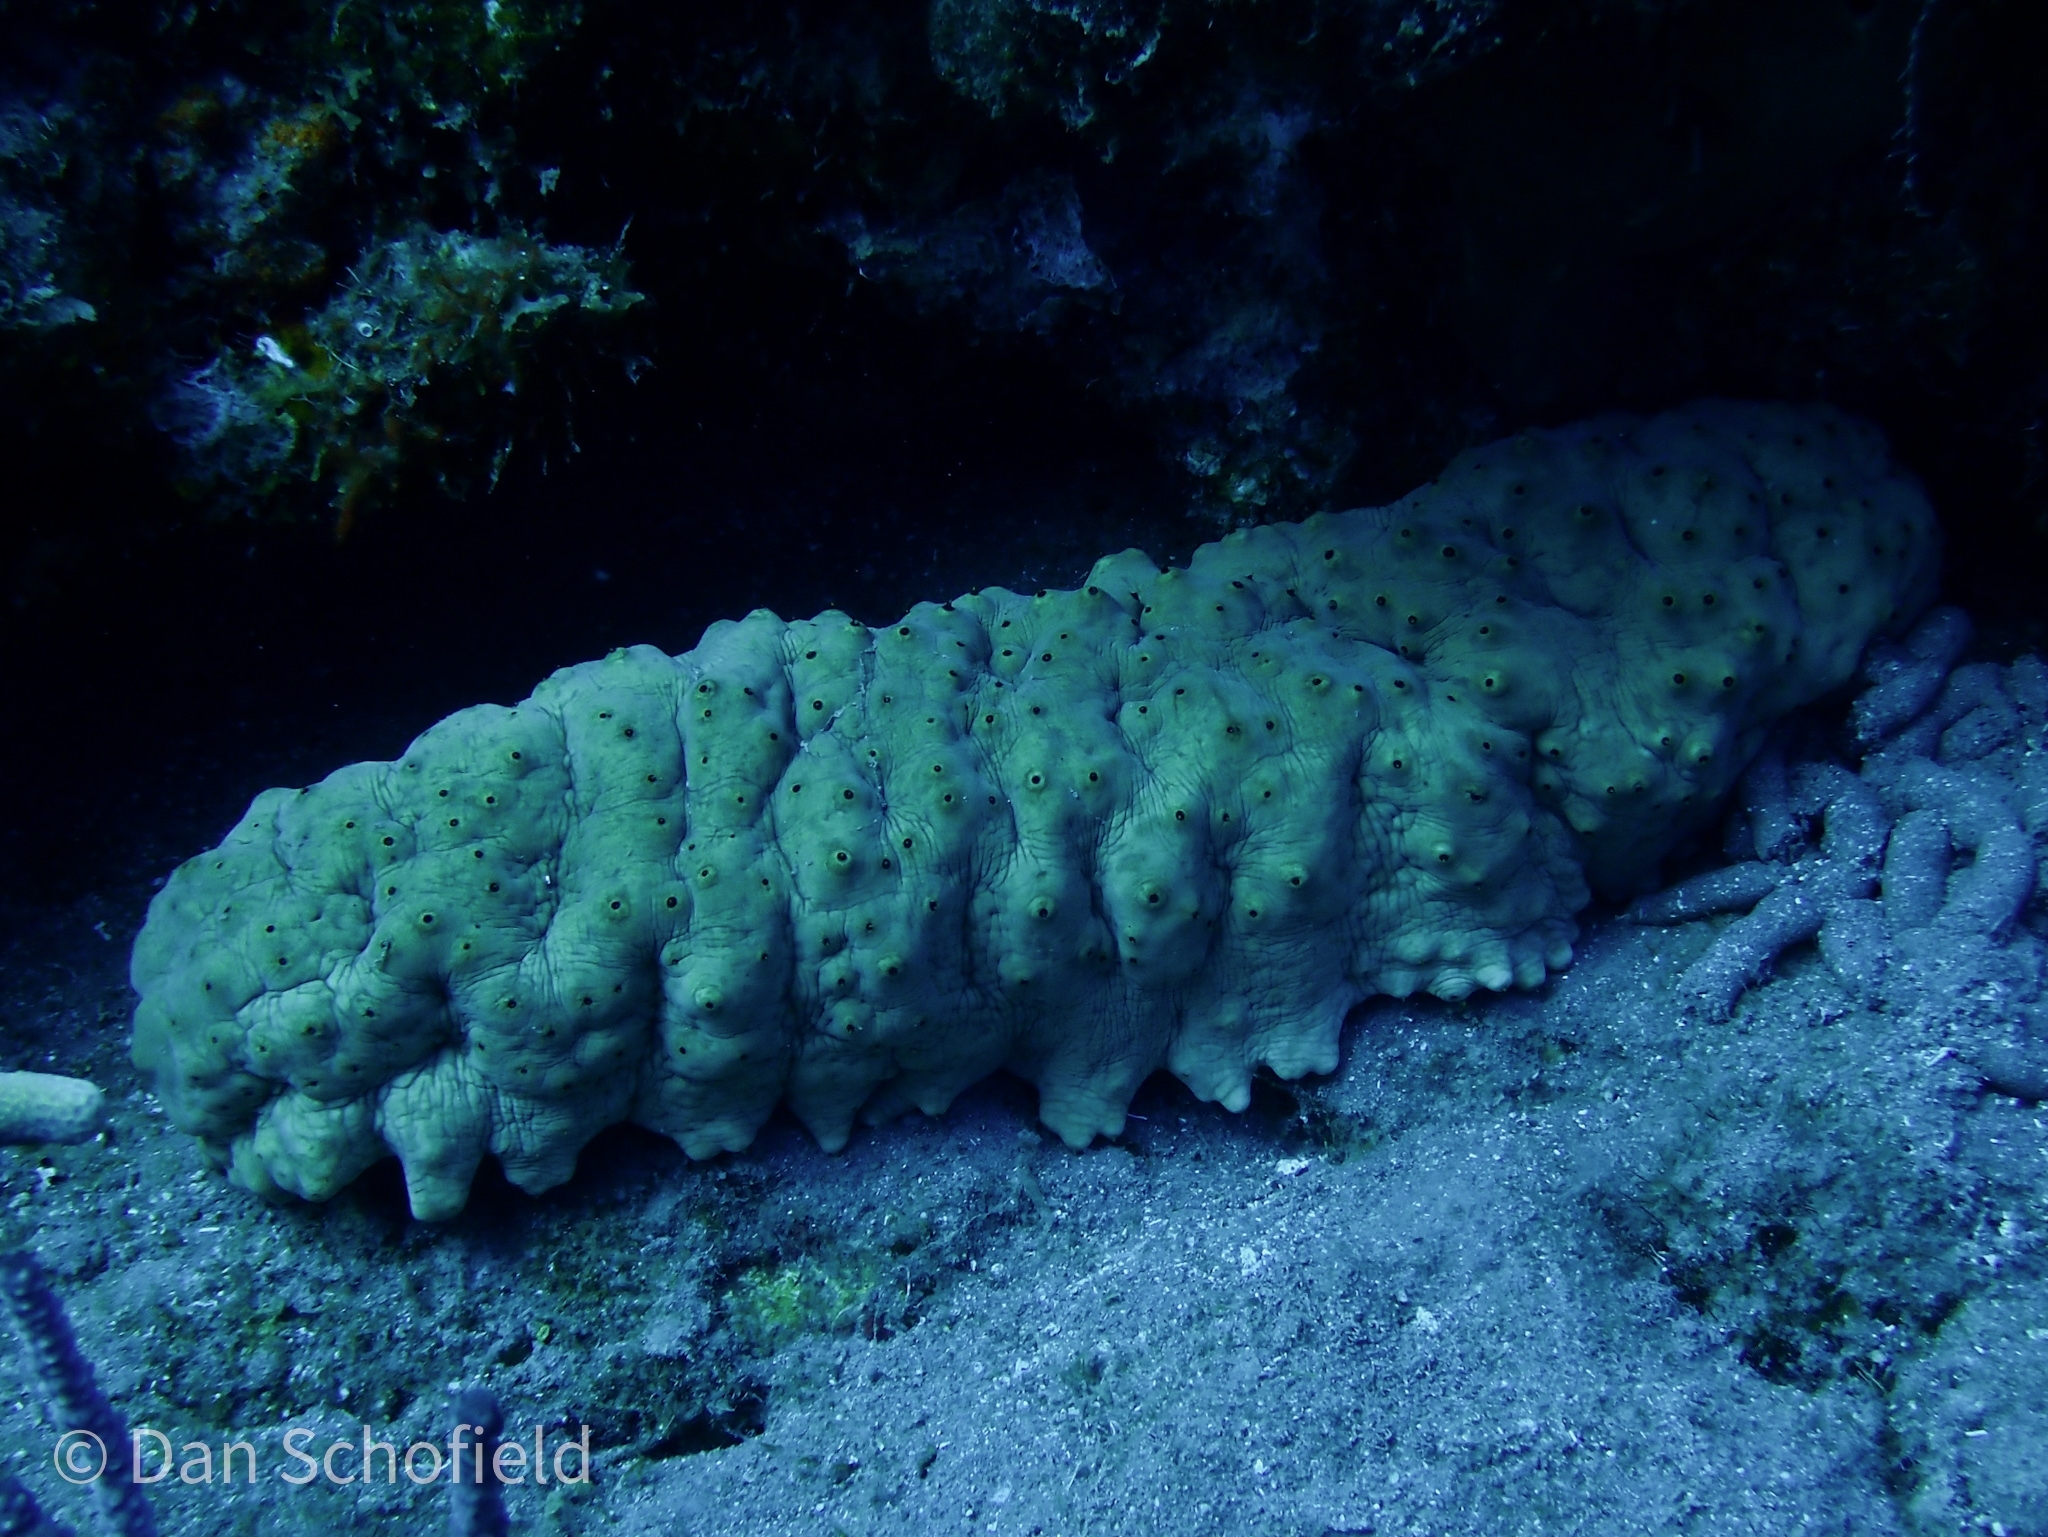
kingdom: Animalia
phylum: Echinodermata
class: Holothuroidea
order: Synallactida
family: Stichopodidae
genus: Isostichopus
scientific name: Isostichopus badionotus
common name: Chocolate chip cucumber
